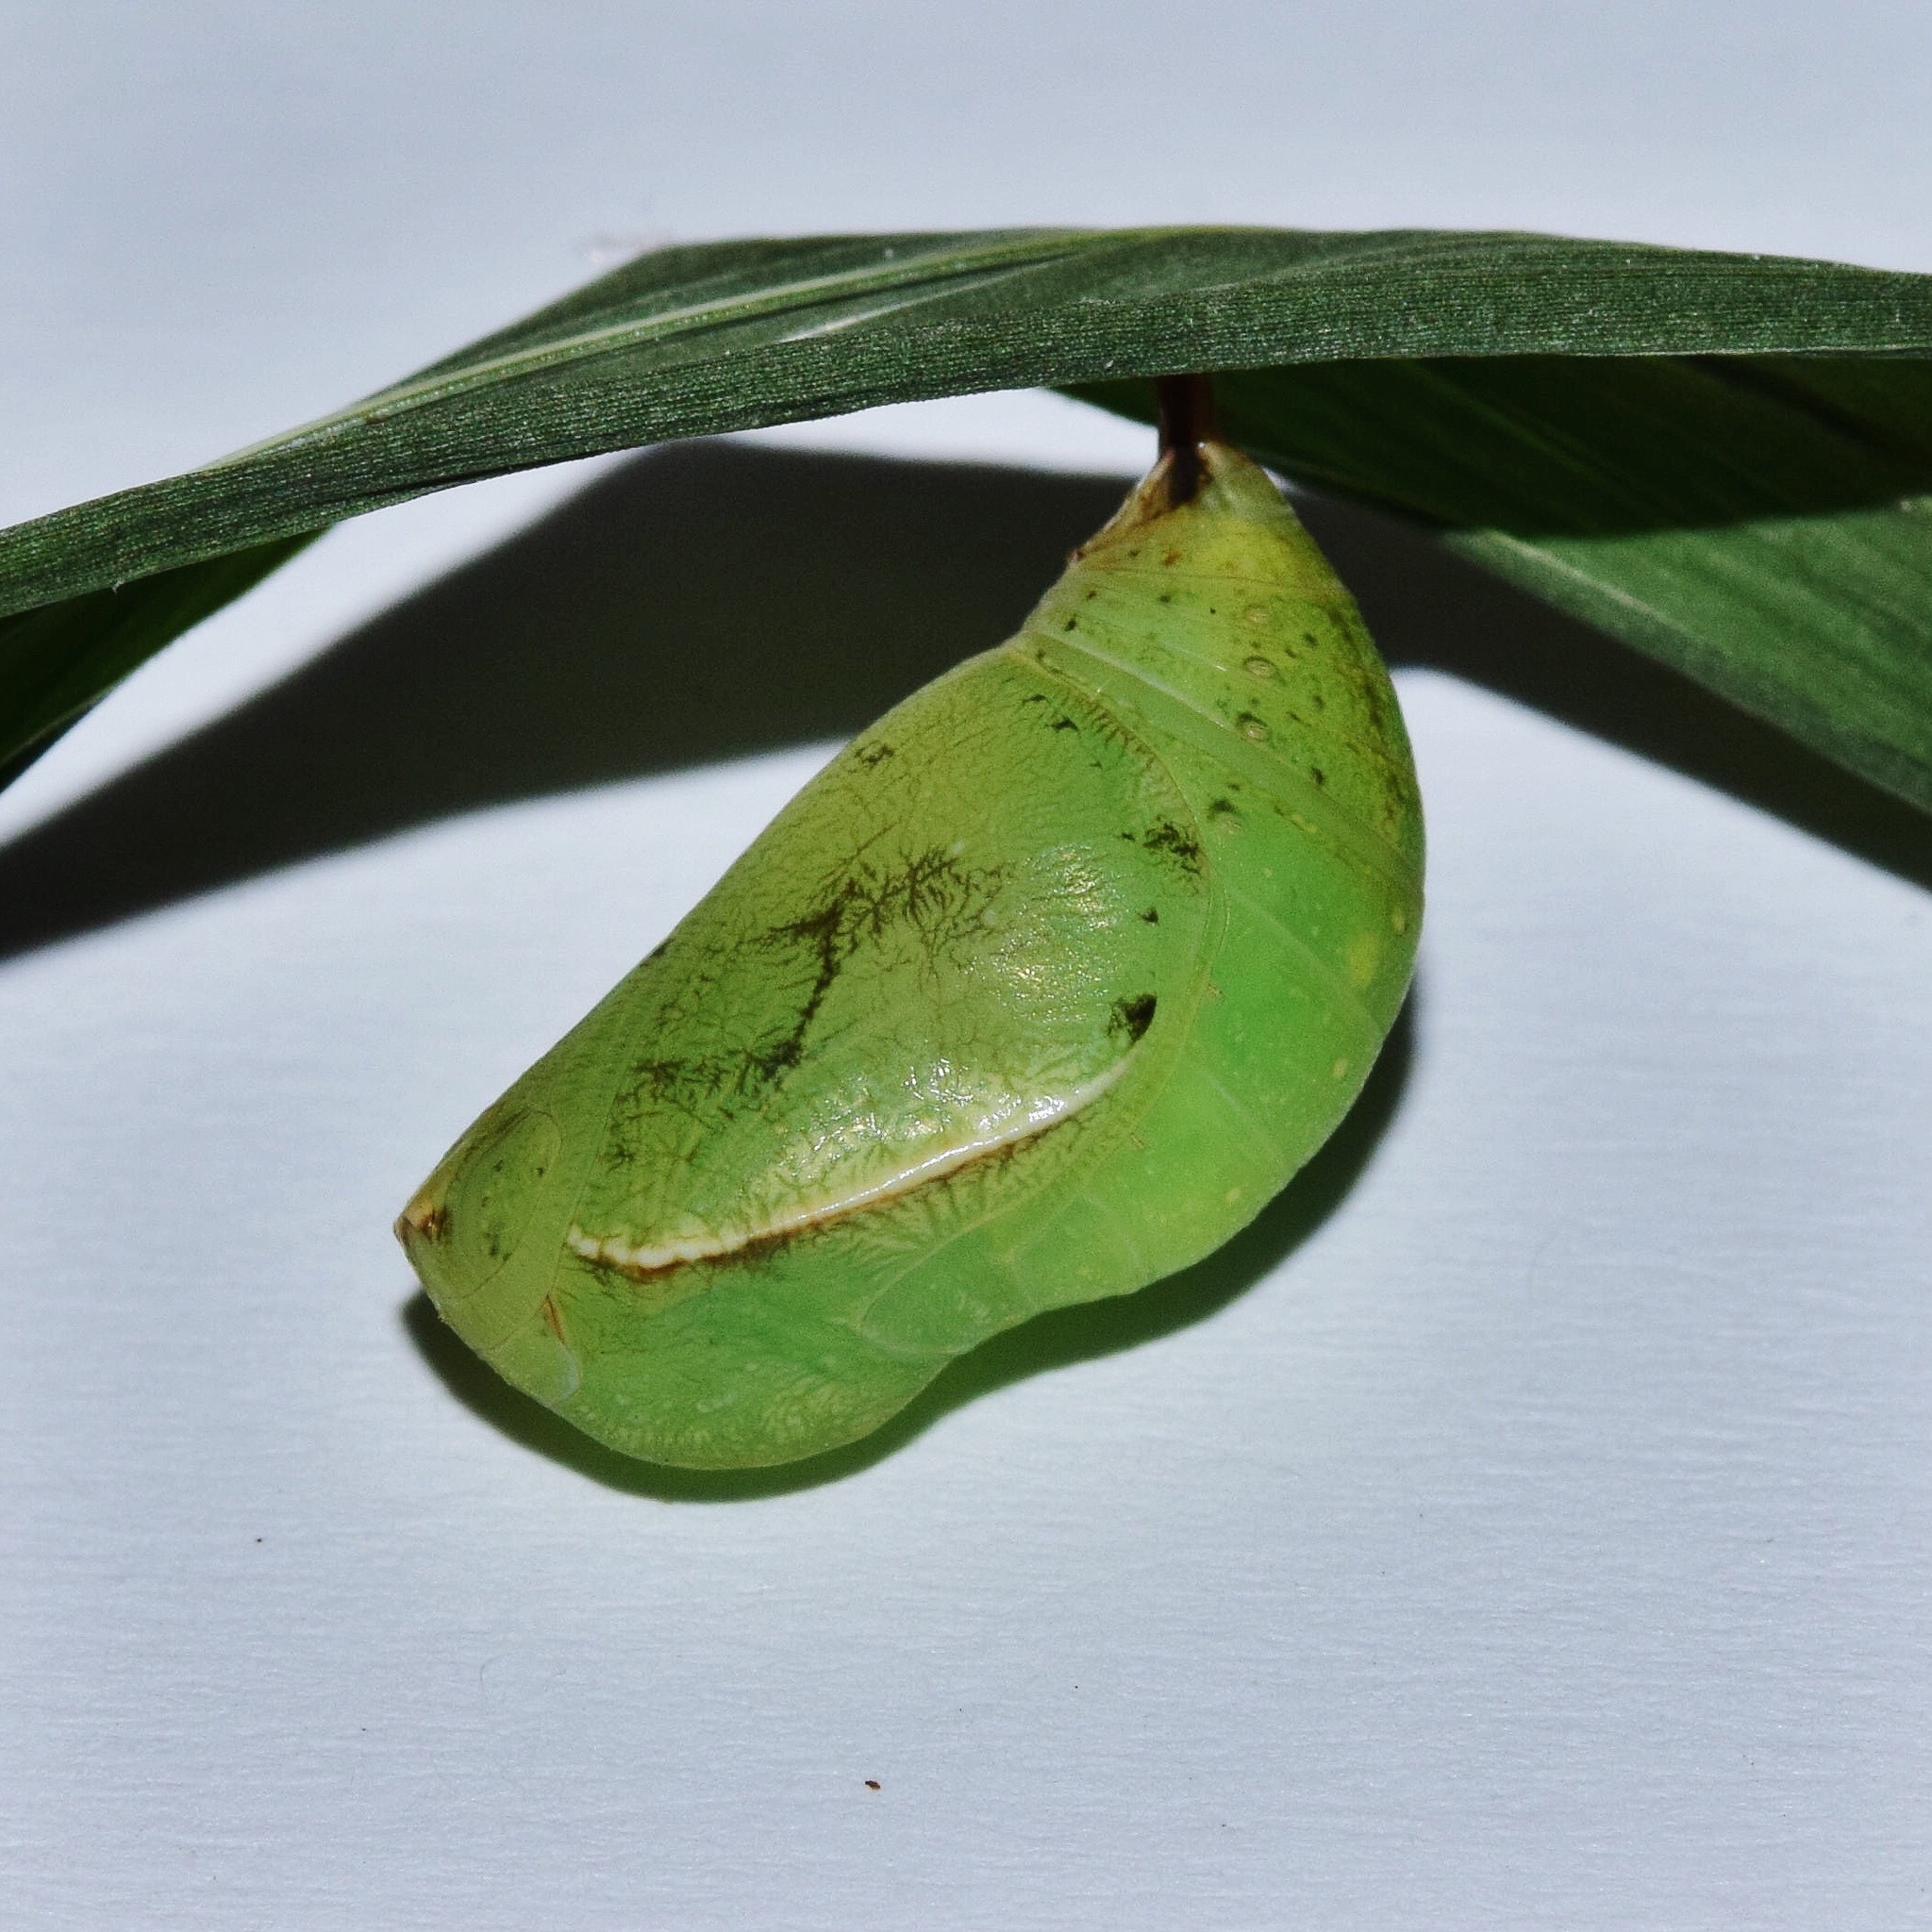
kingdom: Animalia
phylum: Arthropoda
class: Insecta
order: Lepidoptera
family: Nymphalidae
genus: Mycalesis
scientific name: Mycalesis rhacotis
